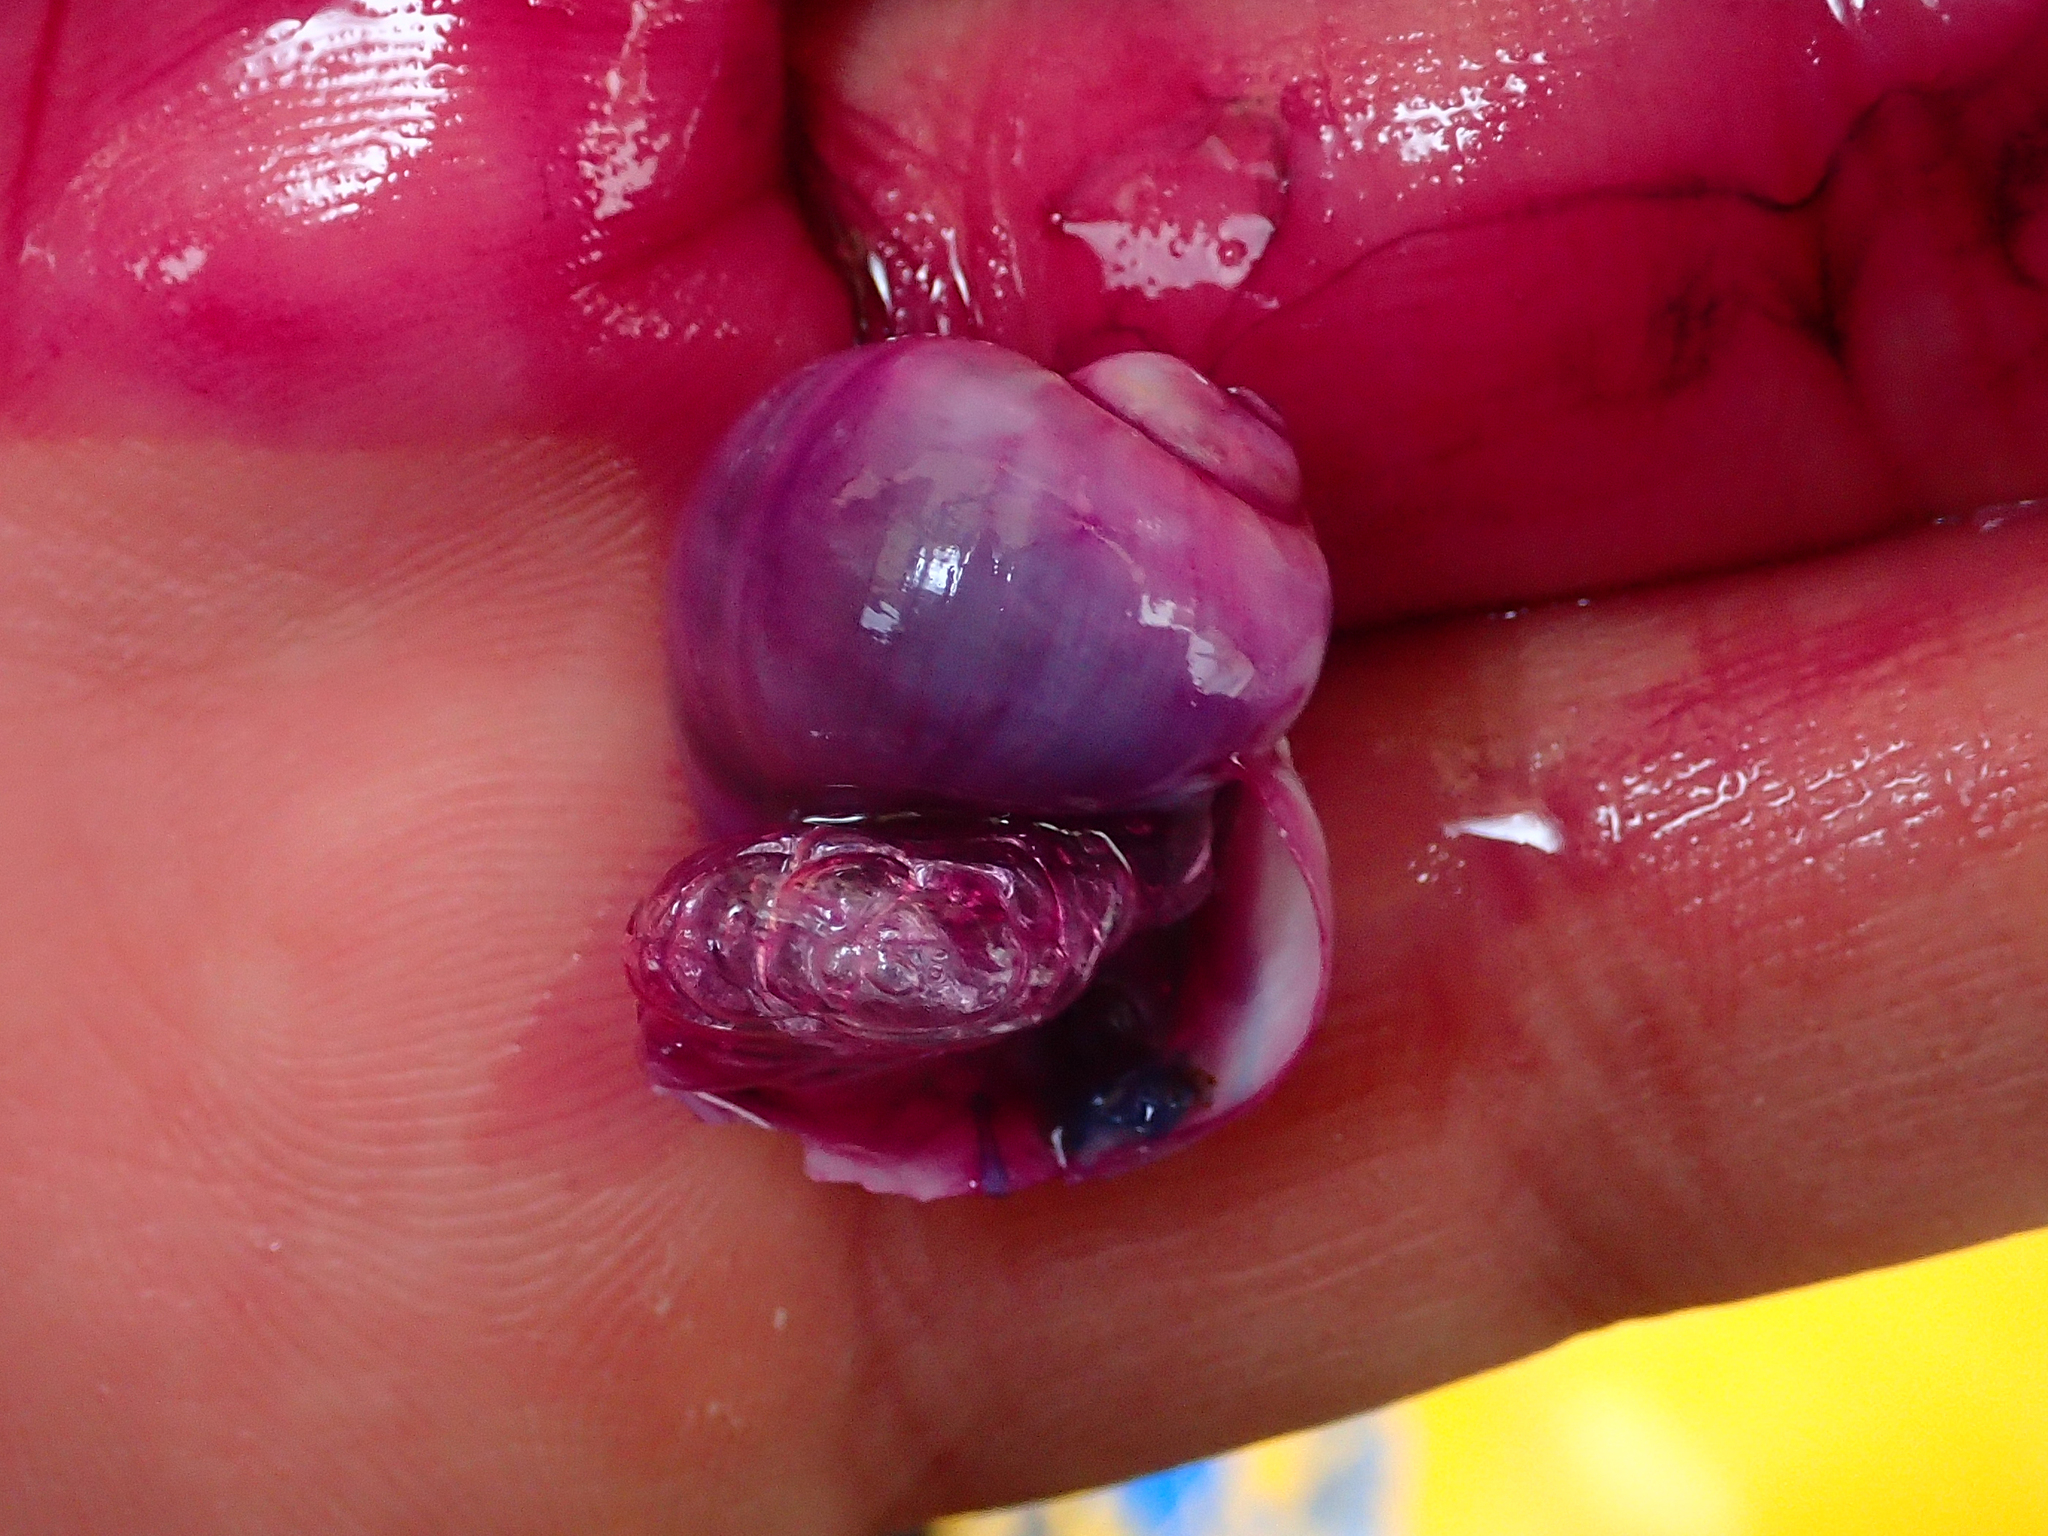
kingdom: Animalia
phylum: Mollusca
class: Gastropoda
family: Epitoniidae
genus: Janthina
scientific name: Janthina pallida
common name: Pale janthina
